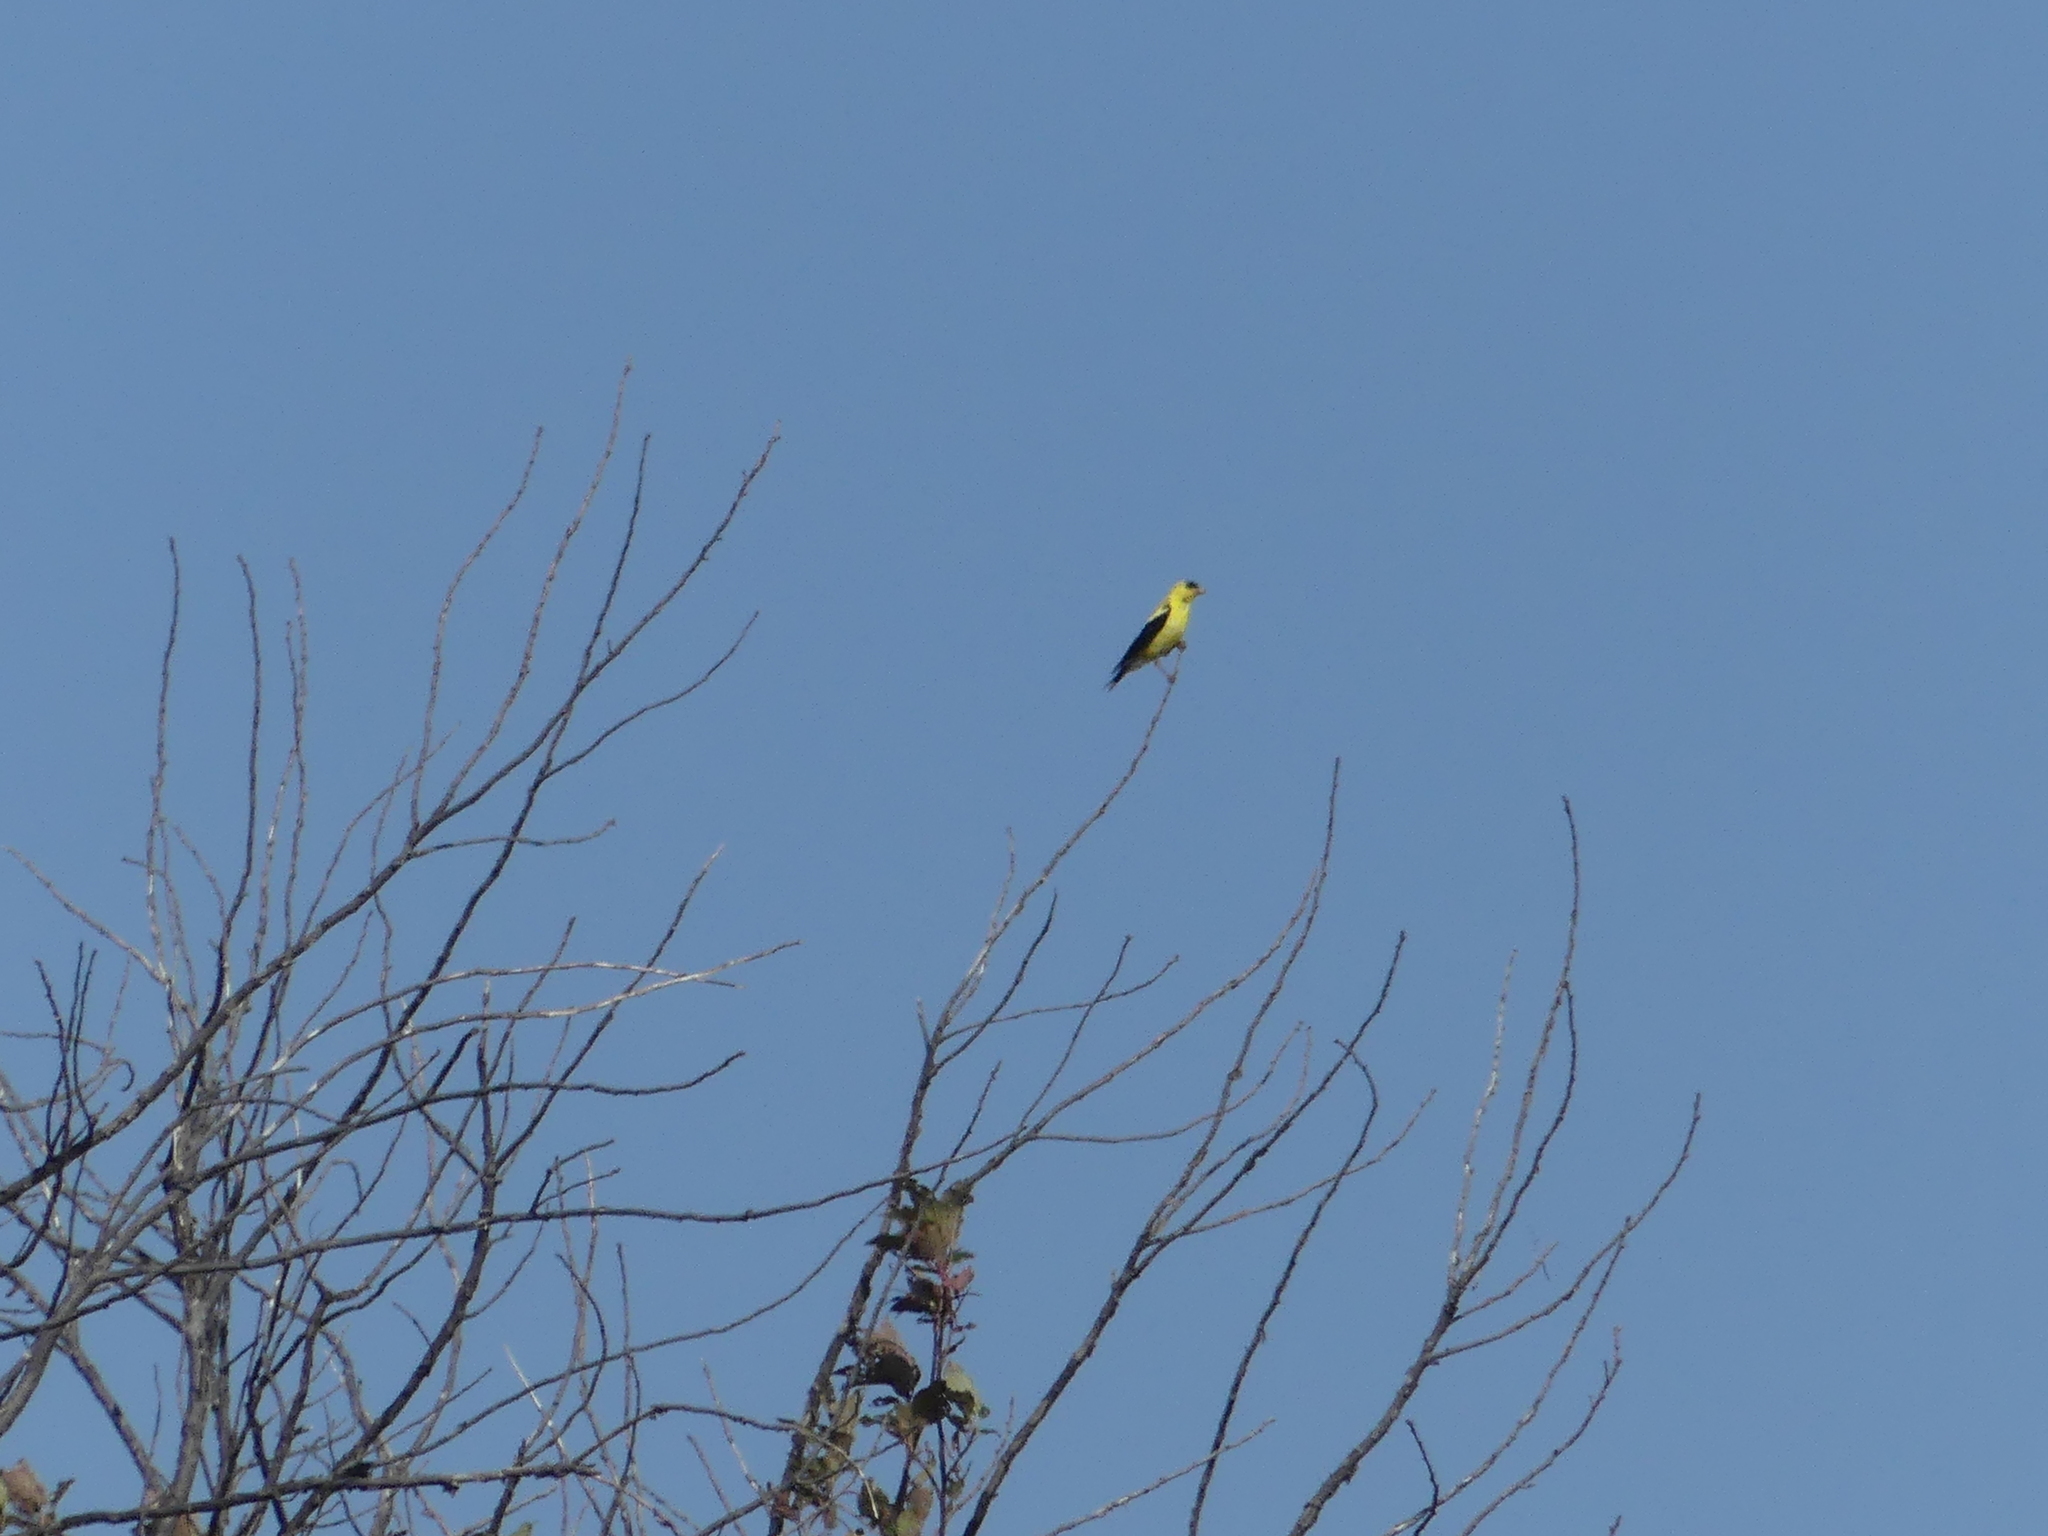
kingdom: Animalia
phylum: Chordata
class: Aves
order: Passeriformes
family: Fringillidae
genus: Spinus
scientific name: Spinus tristis
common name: American goldfinch
